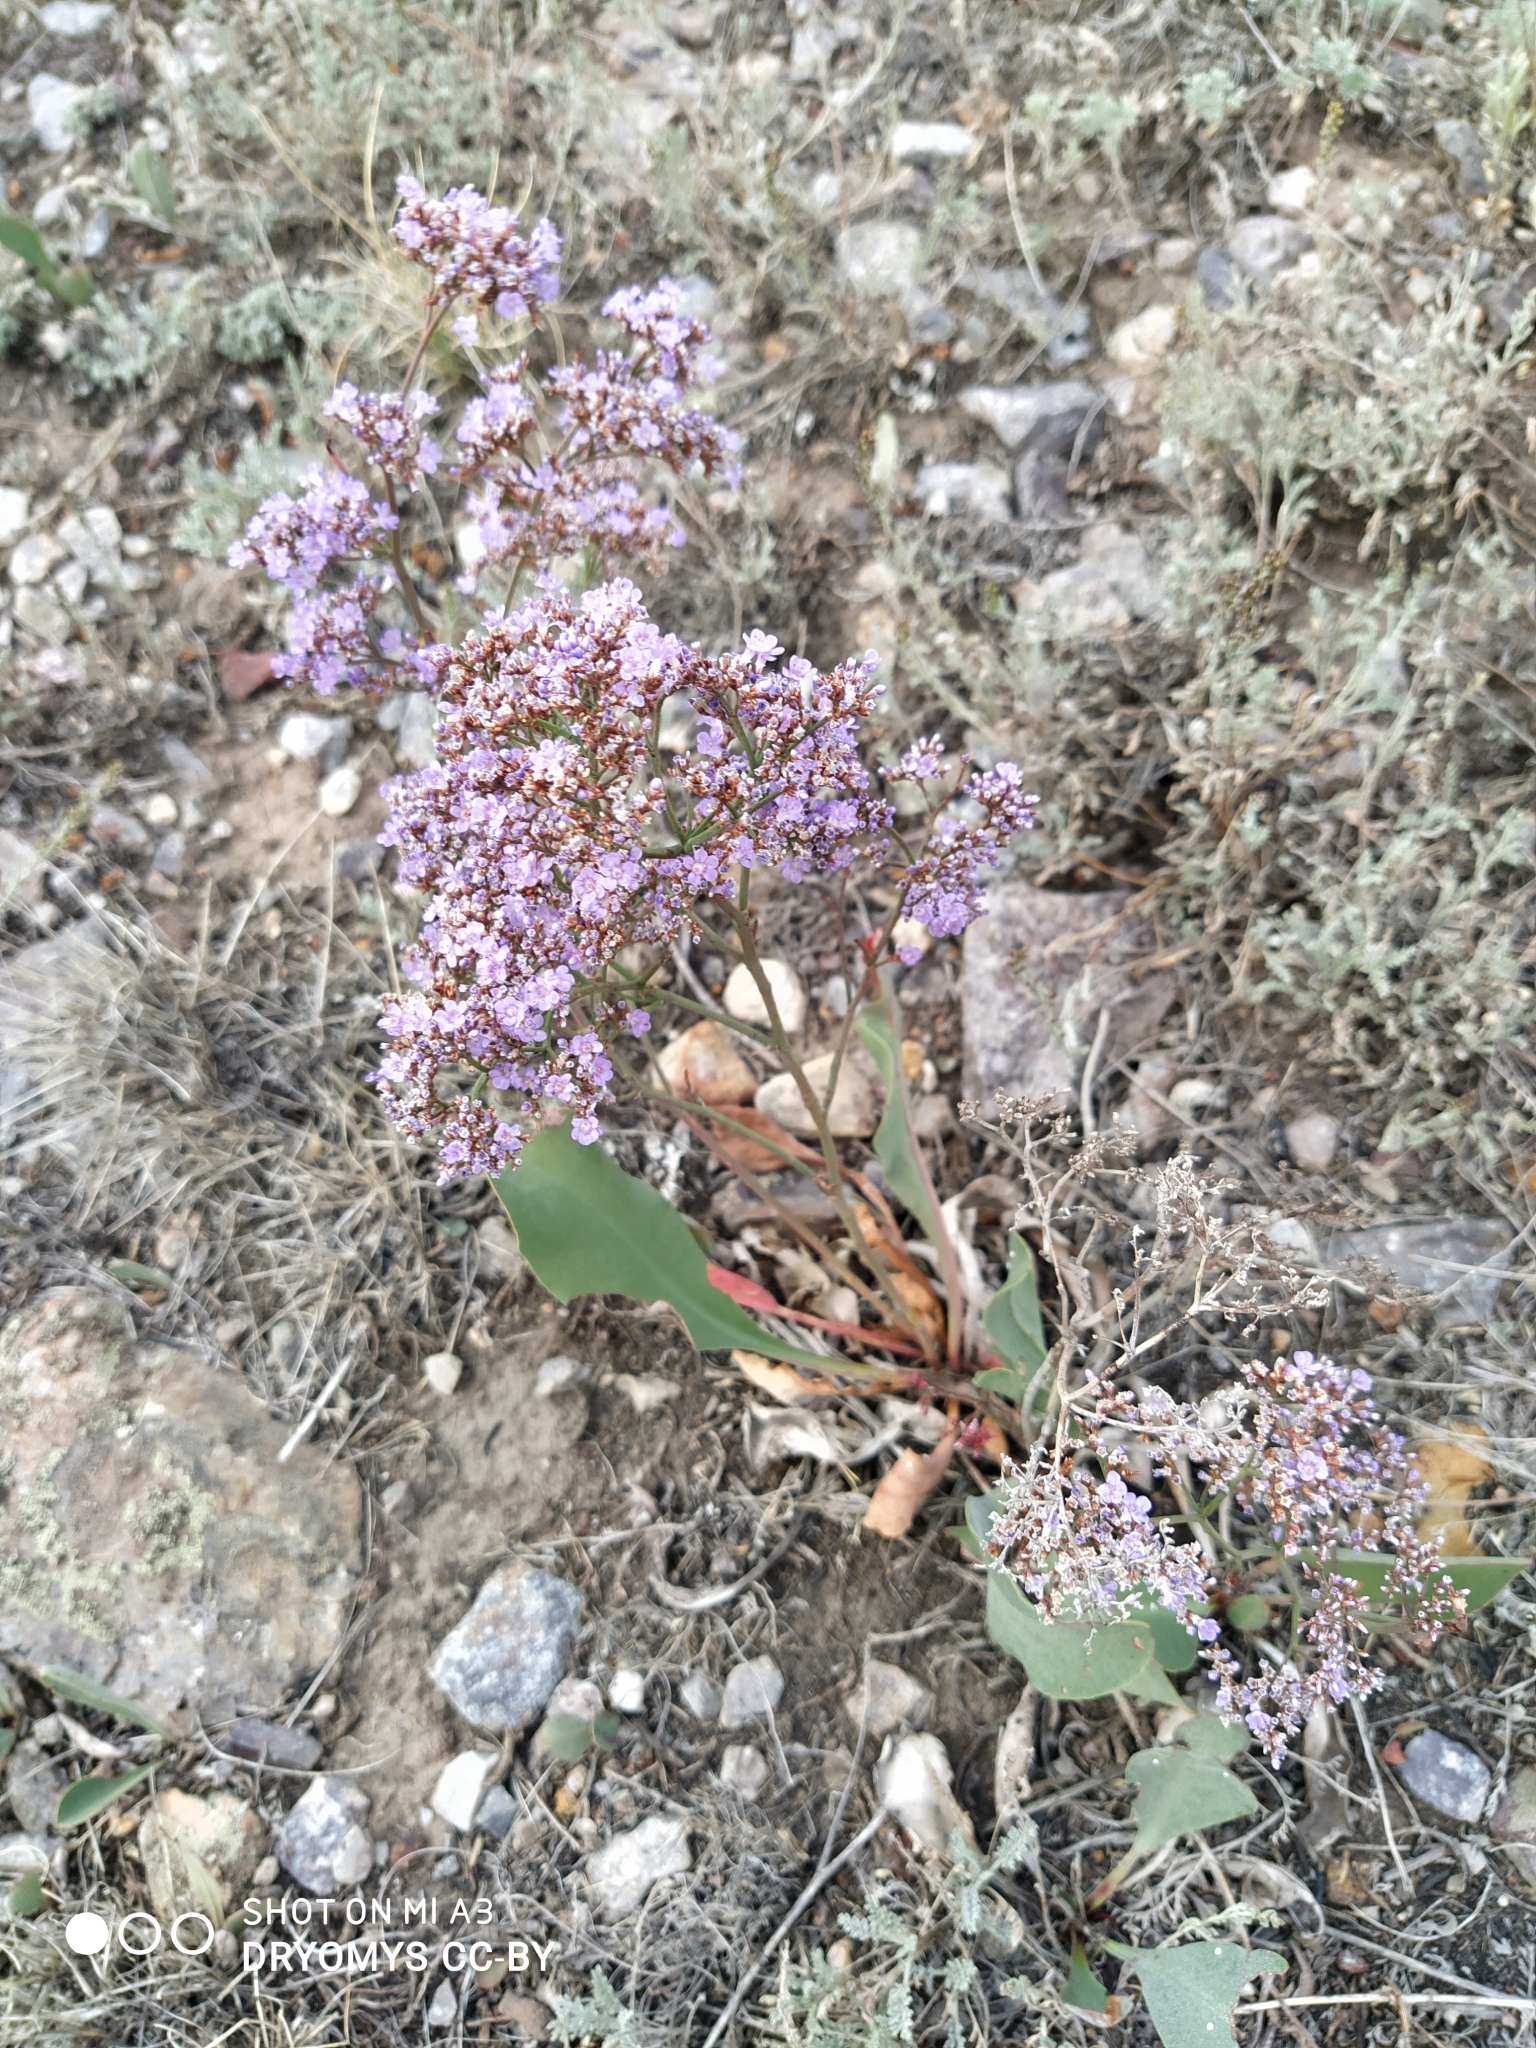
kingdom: Plantae
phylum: Tracheophyta
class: Magnoliopsida
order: Caryophyllales
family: Plumbaginaceae
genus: Limonium
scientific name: Limonium gmelini
